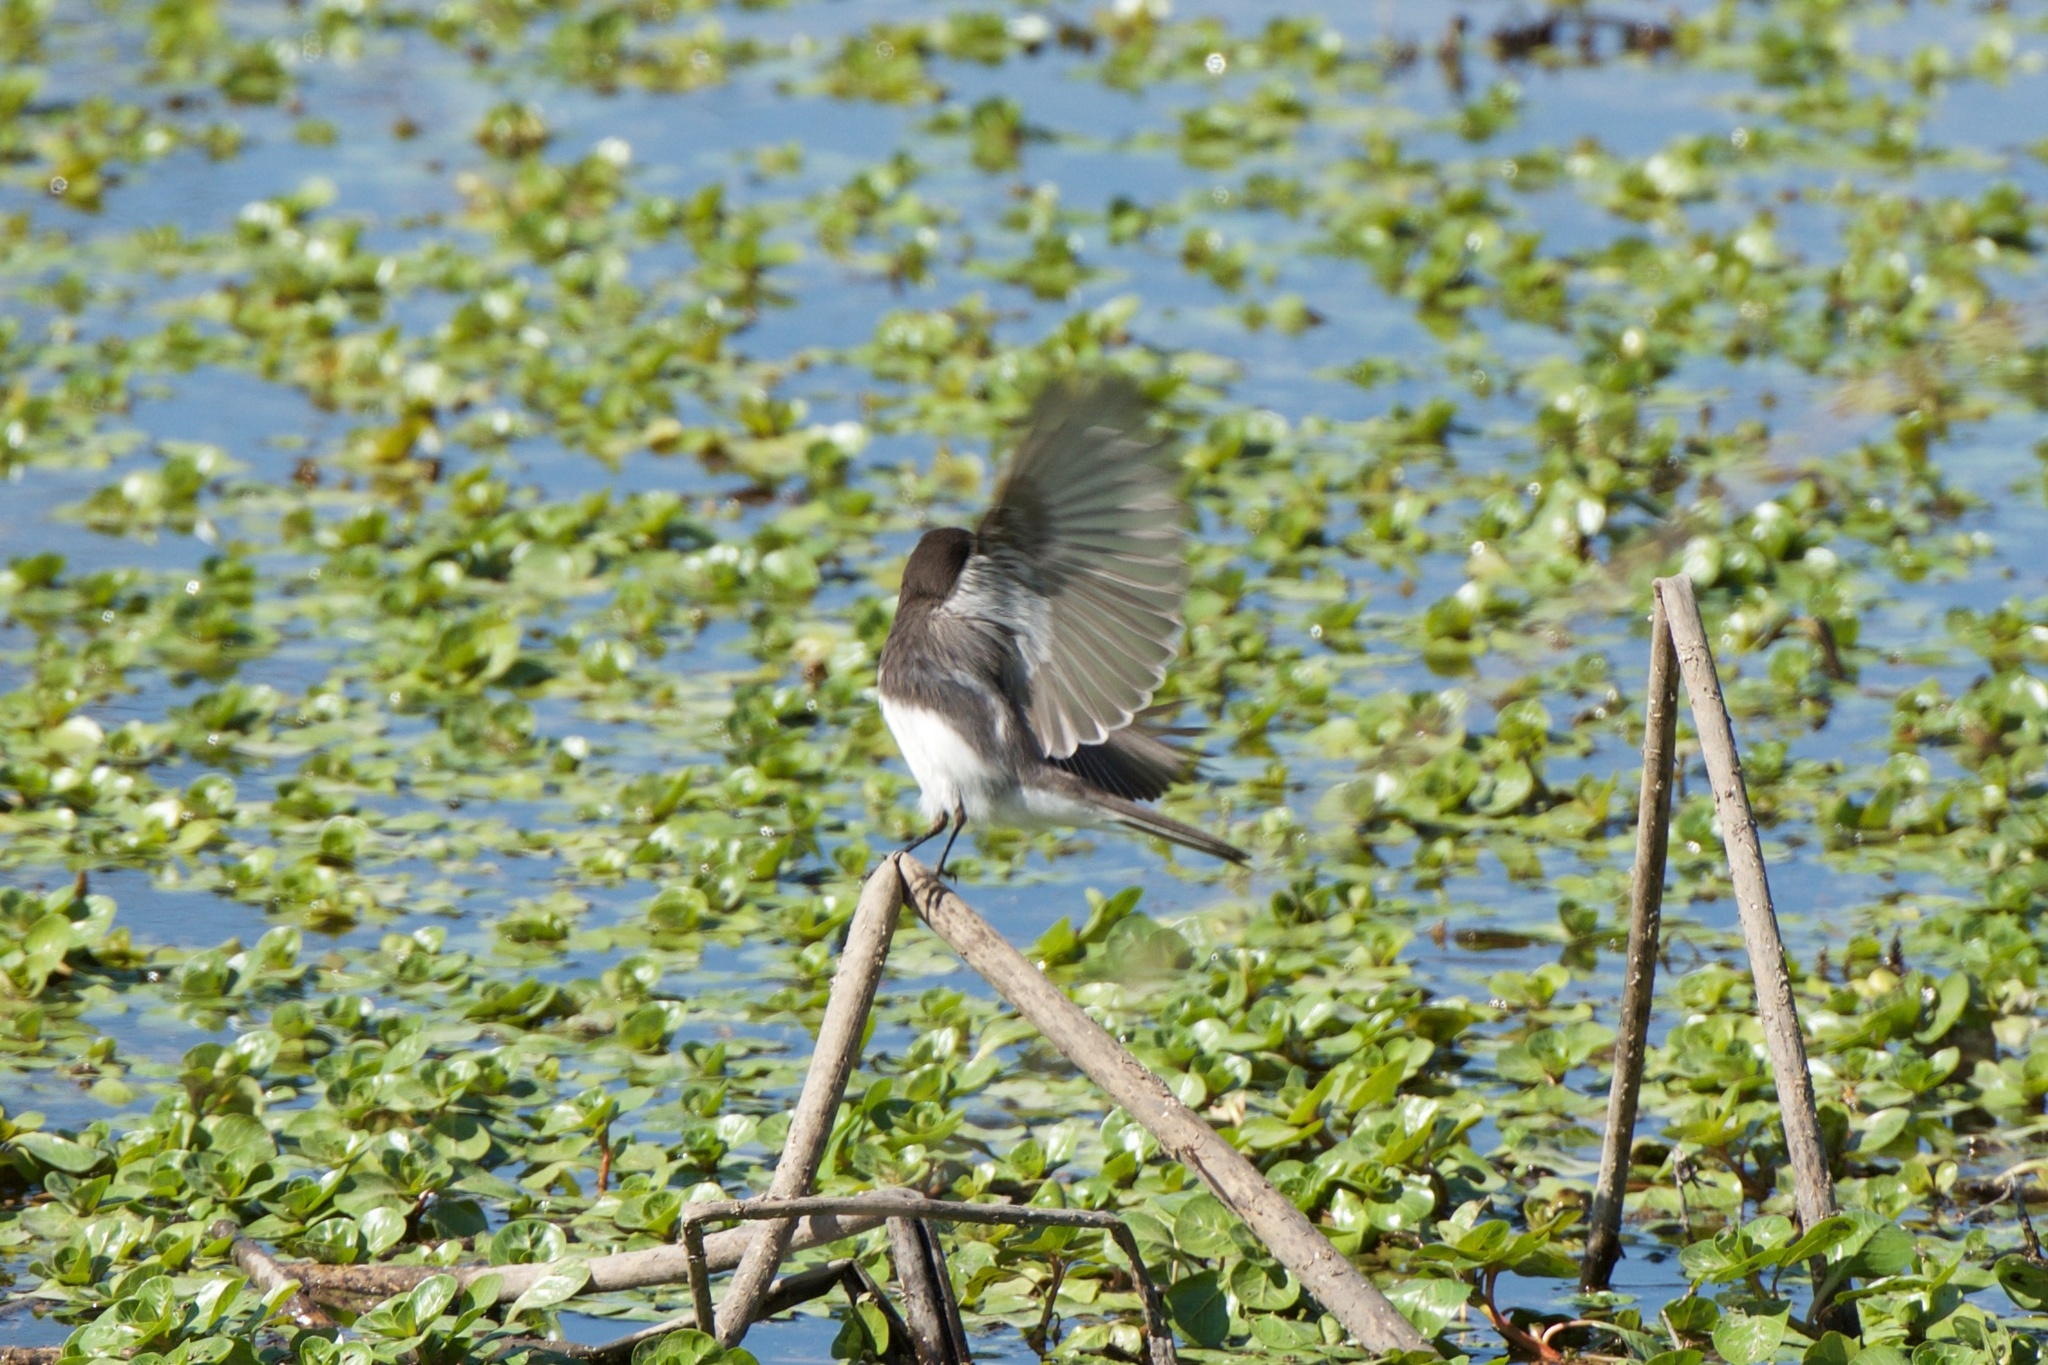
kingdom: Animalia
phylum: Chordata
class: Aves
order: Passeriformes
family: Tyrannidae
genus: Sayornis
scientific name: Sayornis nigricans
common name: Black phoebe
